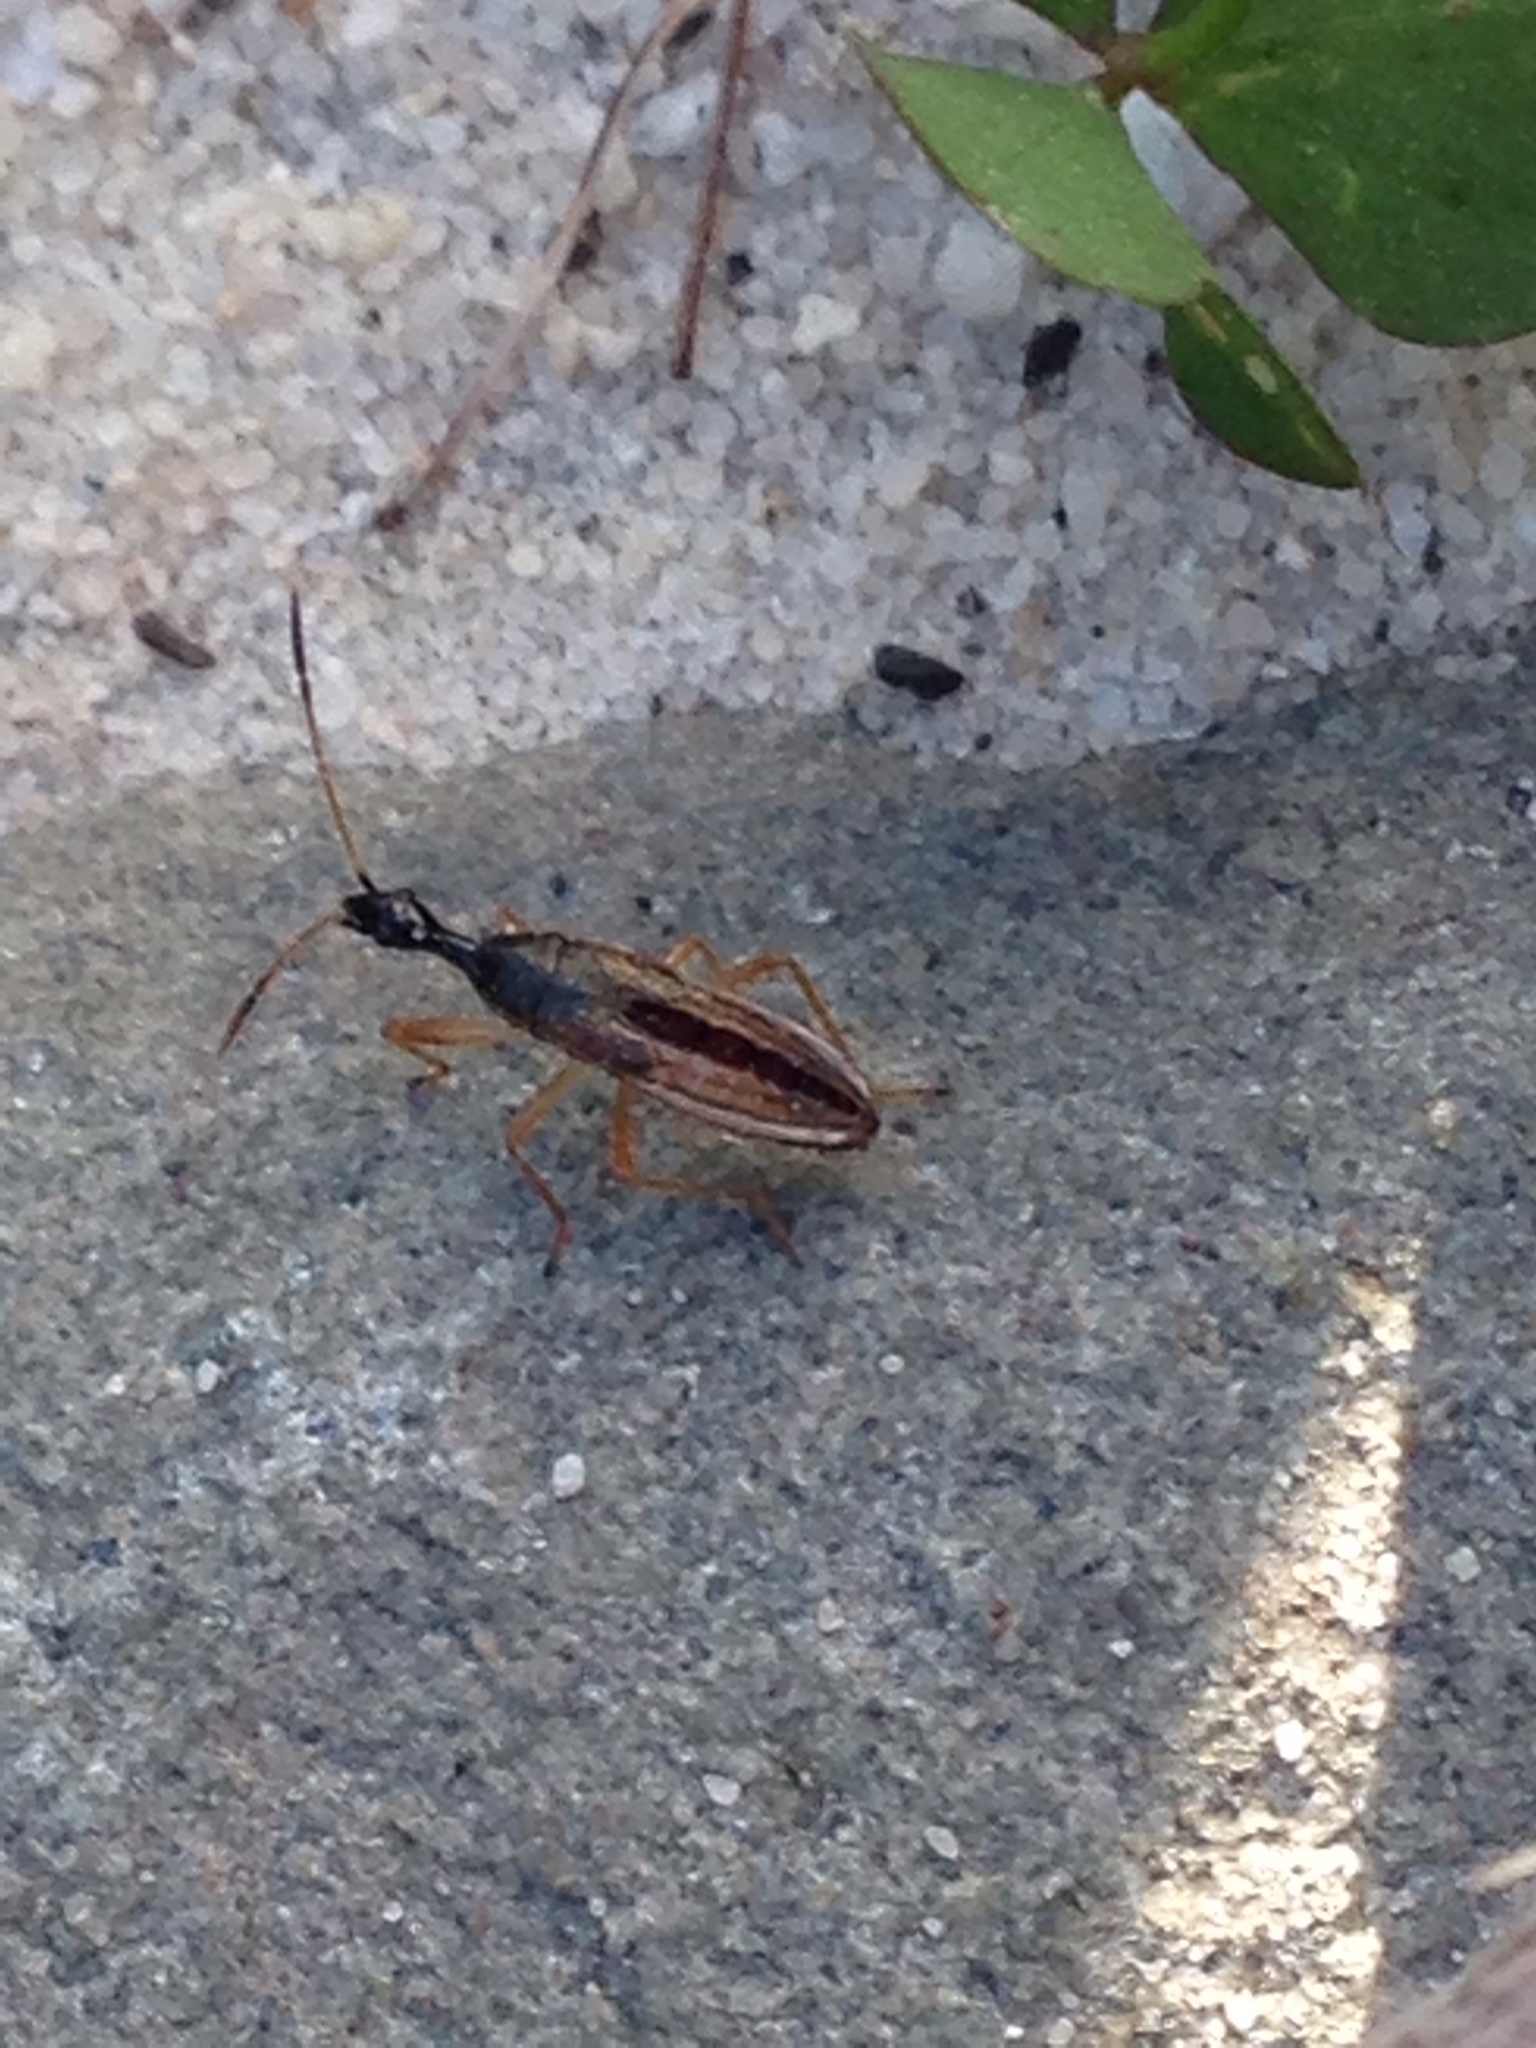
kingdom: Animalia
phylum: Arthropoda
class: Insecta
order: Hemiptera
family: Rhyparochromidae
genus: Myodocha
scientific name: Myodocha serripes
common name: Long-necked seed bug
